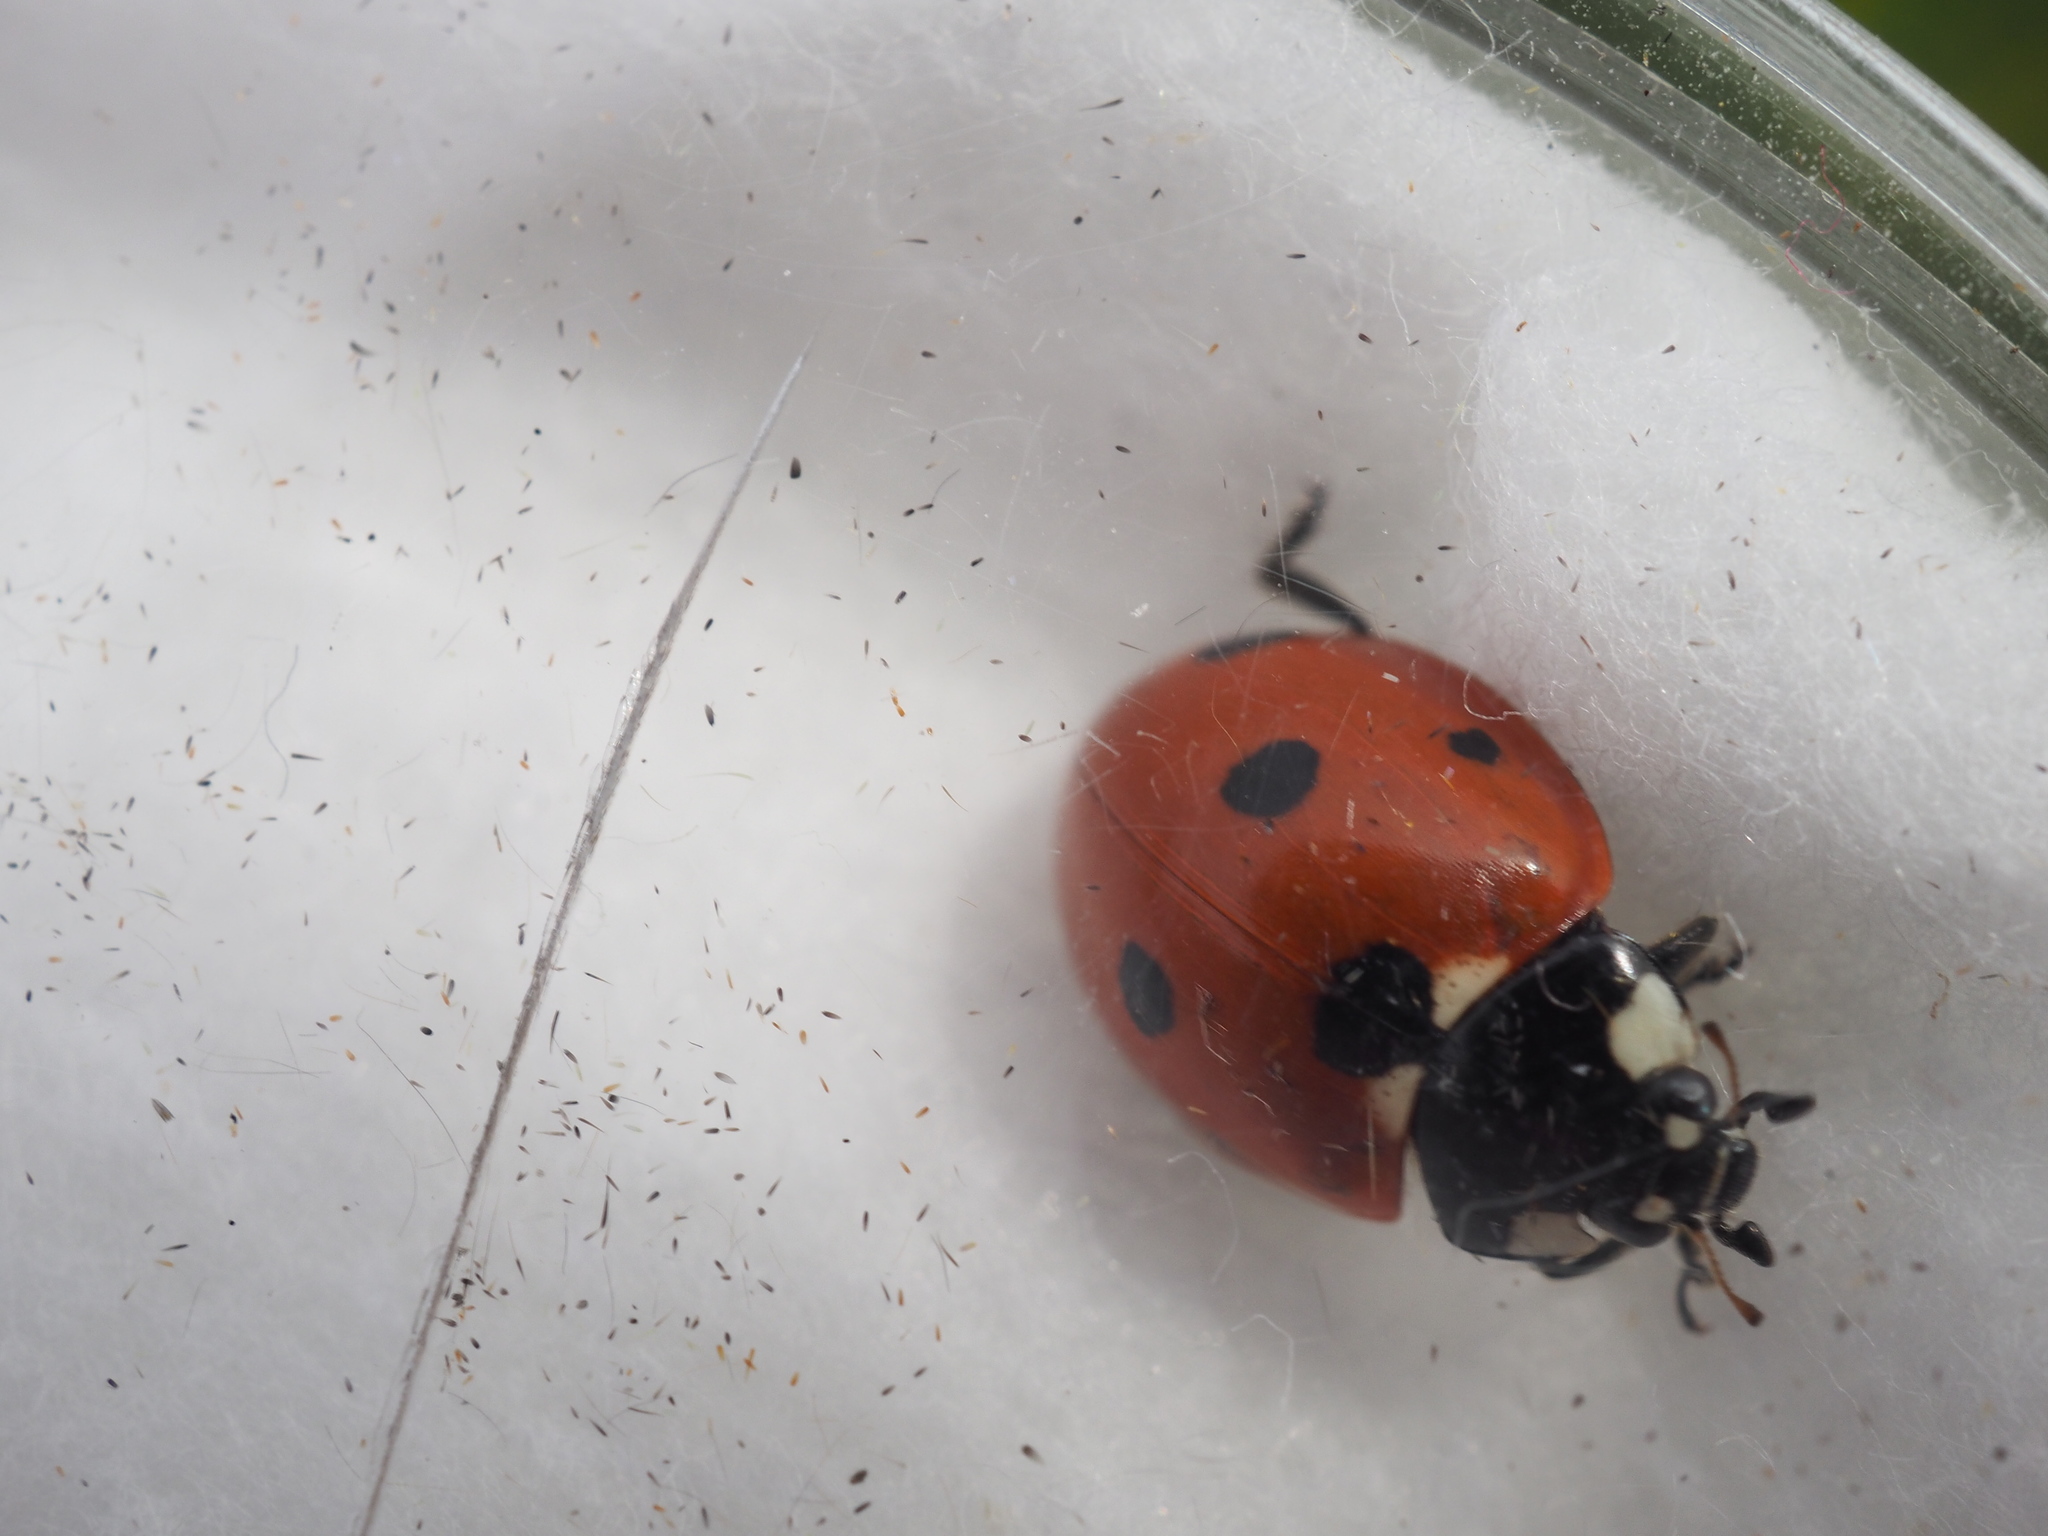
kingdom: Animalia
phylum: Arthropoda
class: Insecta
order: Coleoptera
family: Coccinellidae
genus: Coccinella
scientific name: Coccinella septempunctata
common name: Sevenspotted lady beetle
